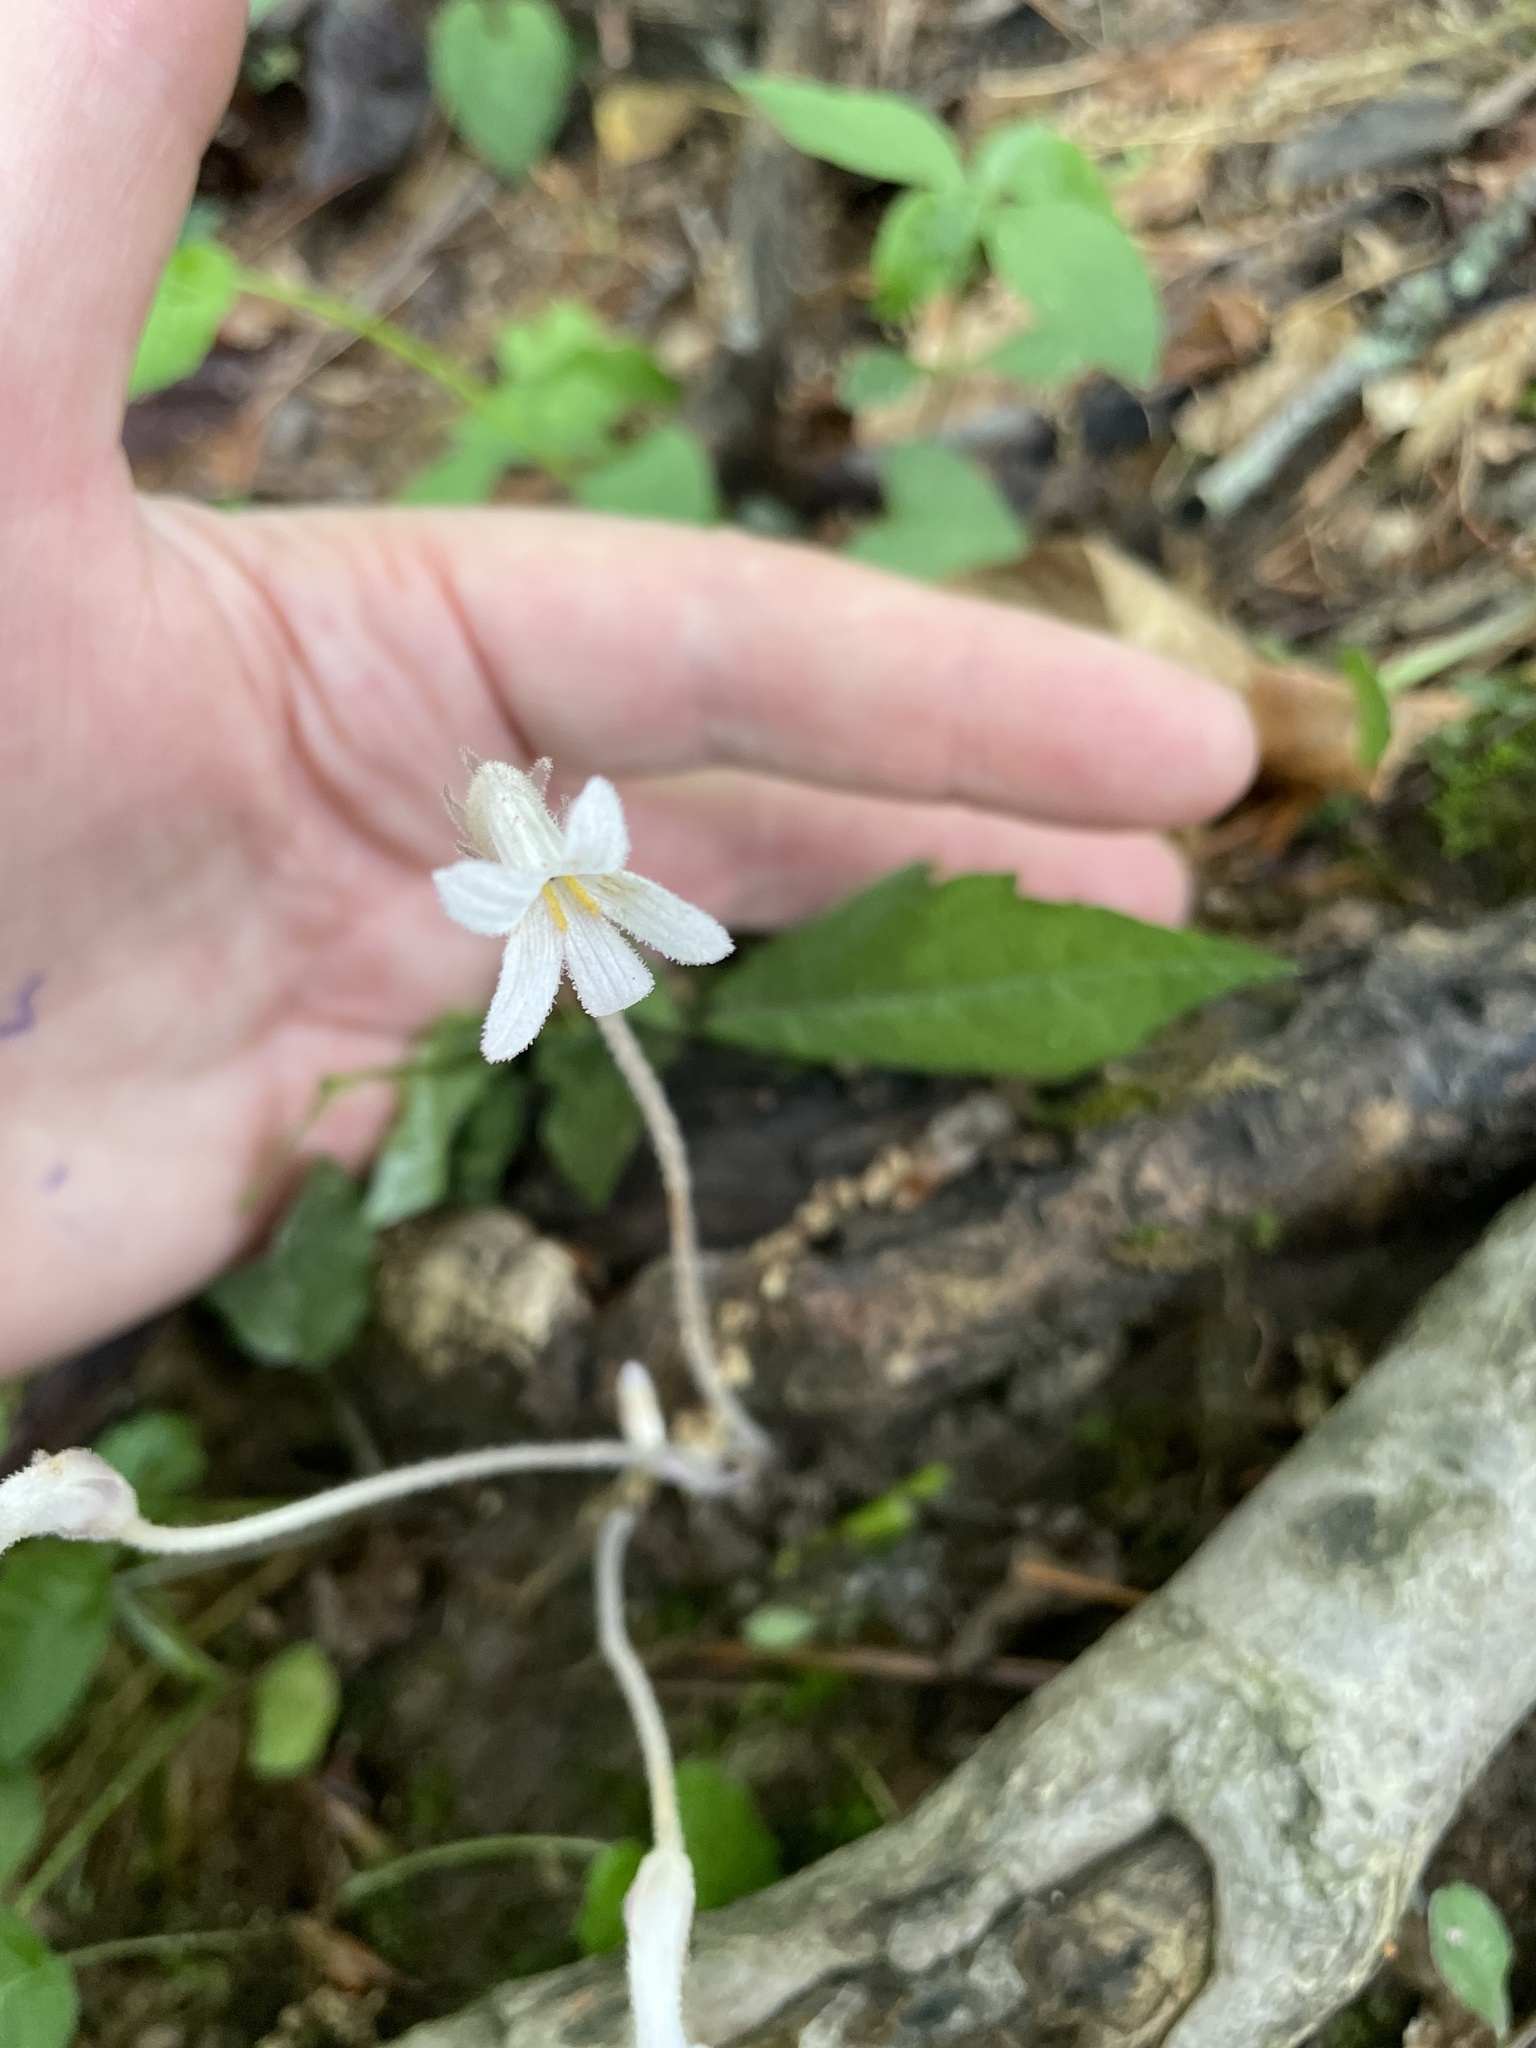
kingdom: Plantae
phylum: Tracheophyta
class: Magnoliopsida
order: Lamiales
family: Orobanchaceae
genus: Aphyllon
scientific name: Aphyllon uniflorum
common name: One-flowered broomrape
